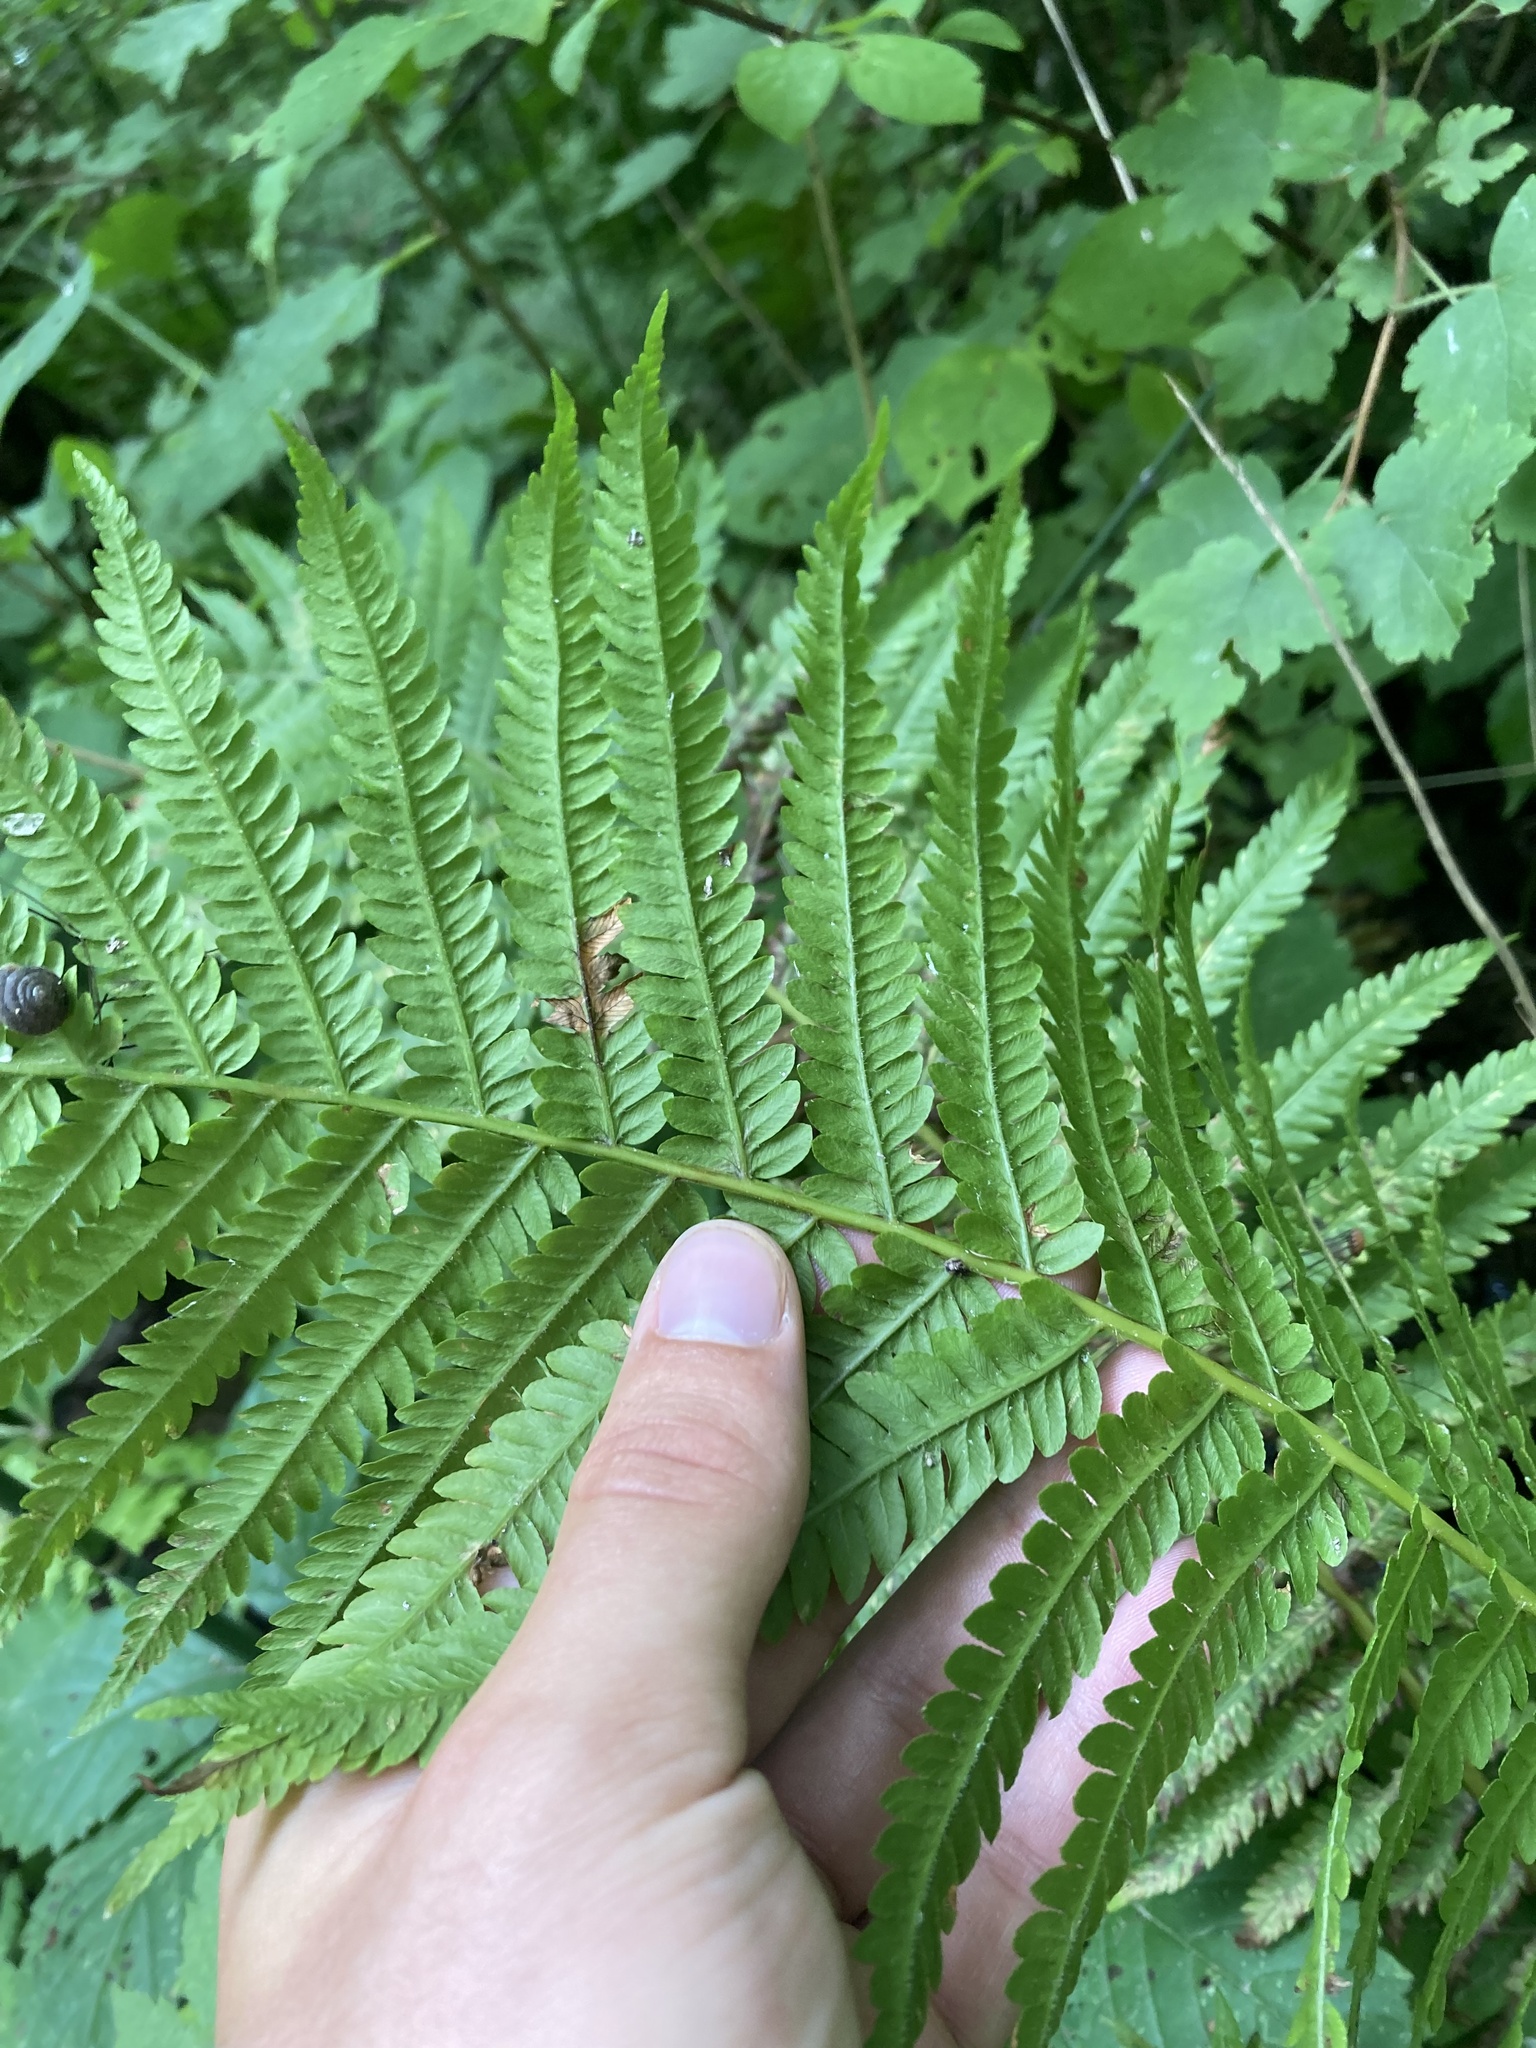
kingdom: Plantae
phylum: Tracheophyta
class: Polypodiopsida
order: Polypodiales
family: Onocleaceae
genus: Matteuccia
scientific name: Matteuccia struthiopteris
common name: Ostrich fern
